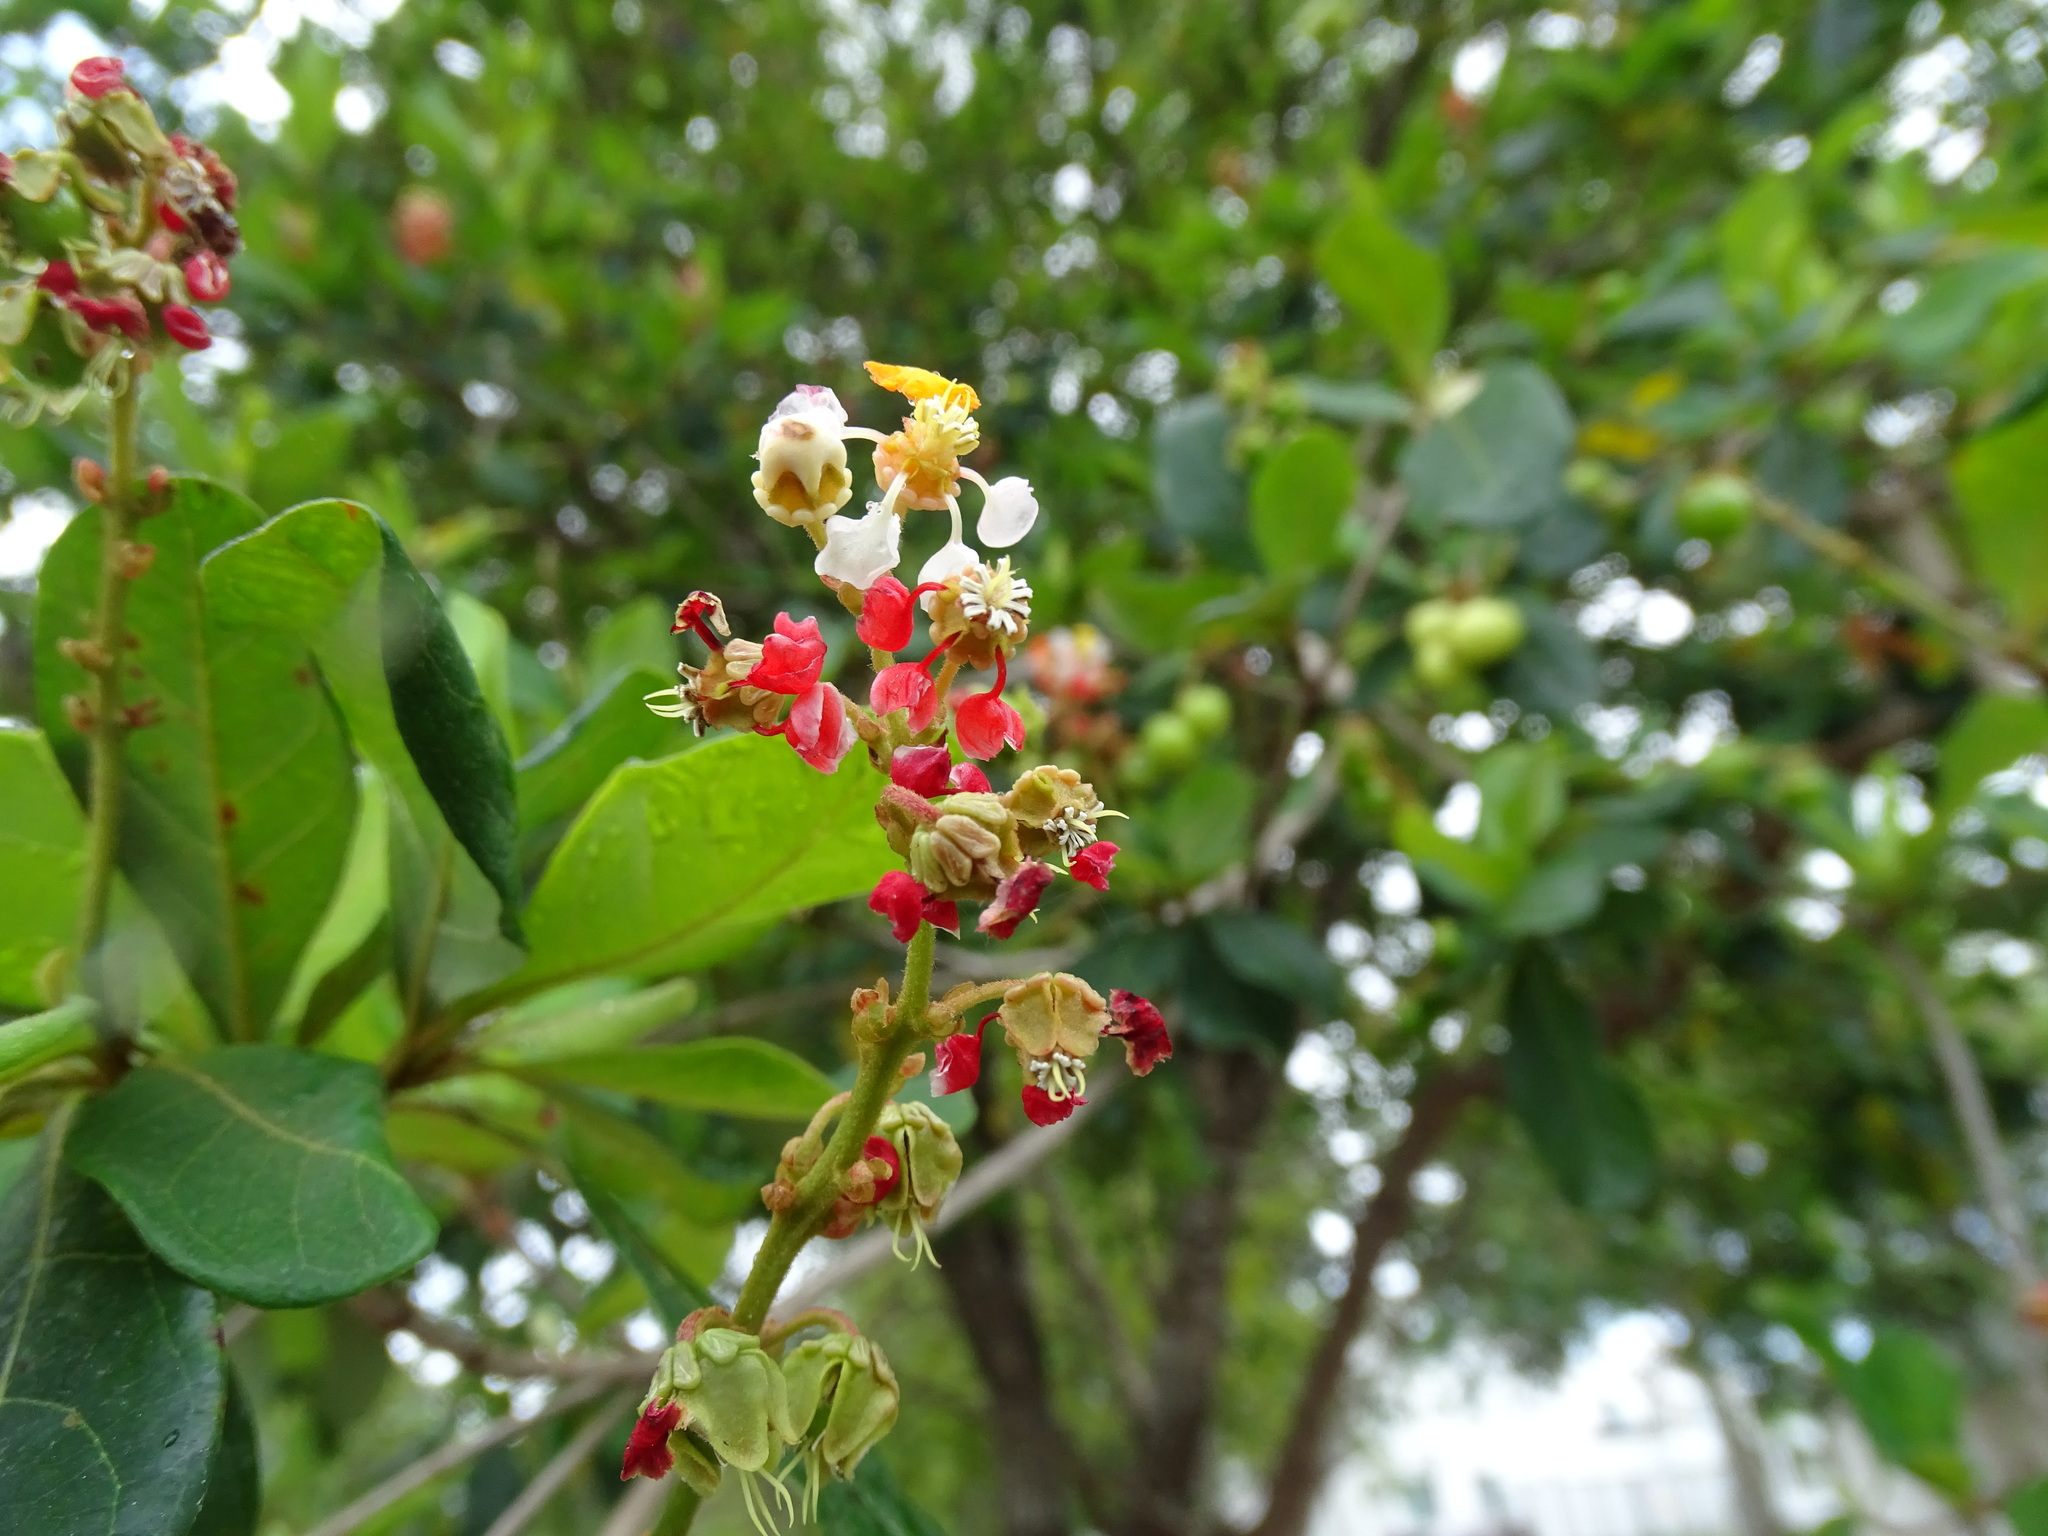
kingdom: Plantae
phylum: Tracheophyta
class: Magnoliopsida
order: Malpighiales
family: Malpighiaceae
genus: Byrsonima
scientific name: Byrsonima roigii
